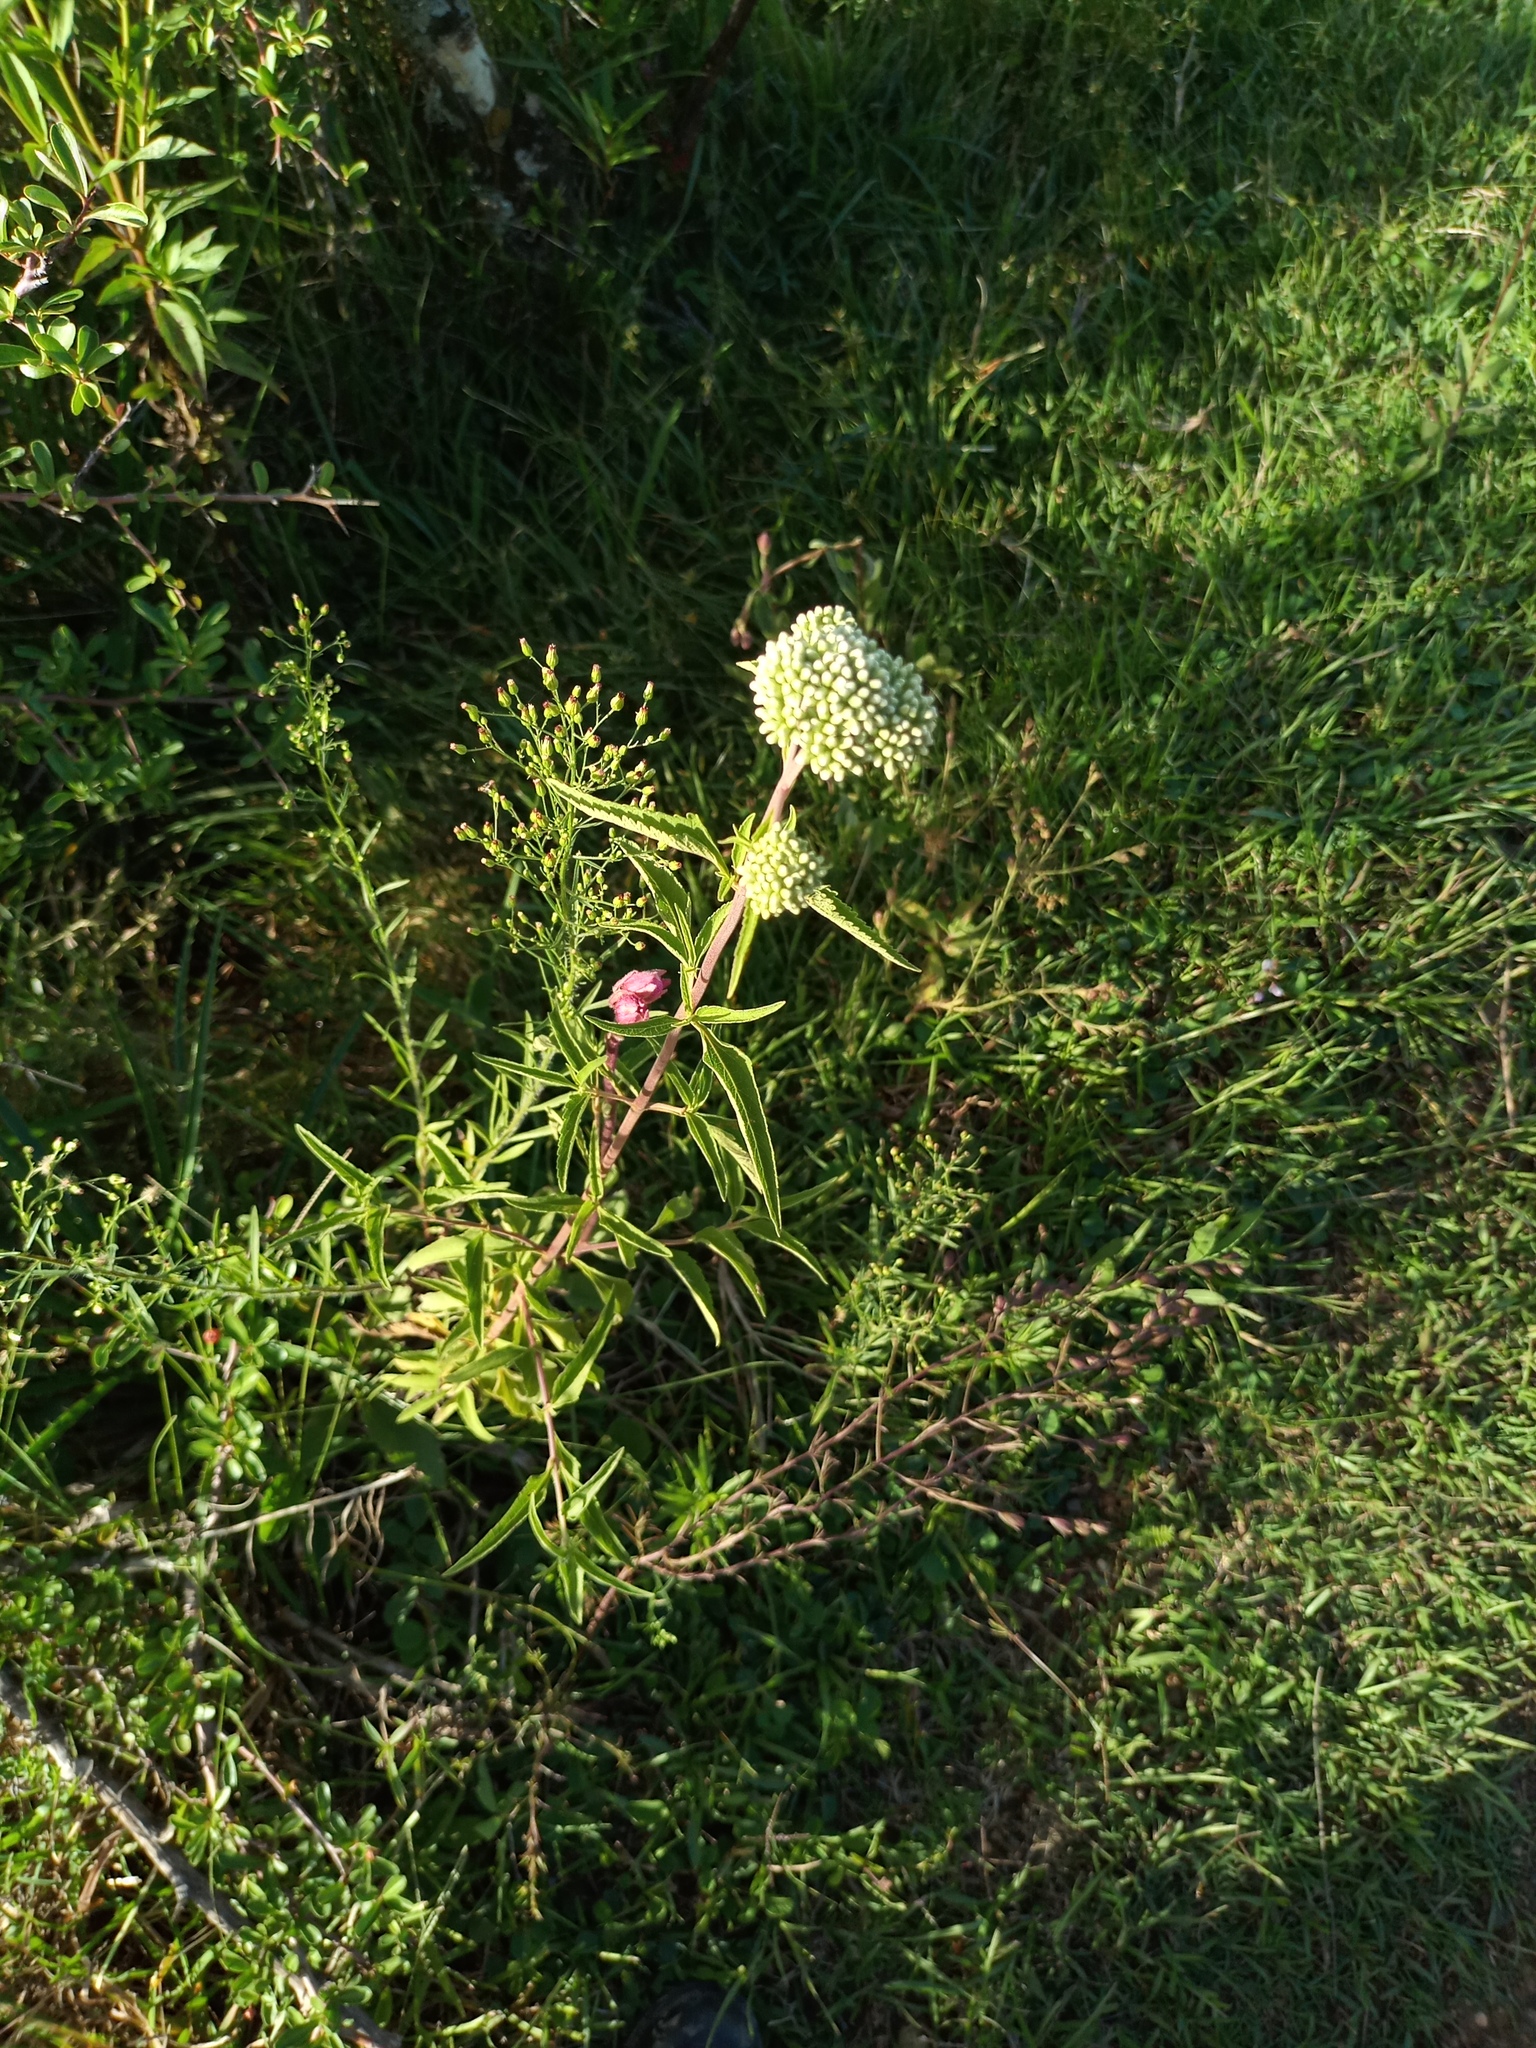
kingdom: Plantae
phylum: Tracheophyta
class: Magnoliopsida
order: Asterales
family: Asteraceae
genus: Austroeupatorium
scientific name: Austroeupatorium inulifolium
